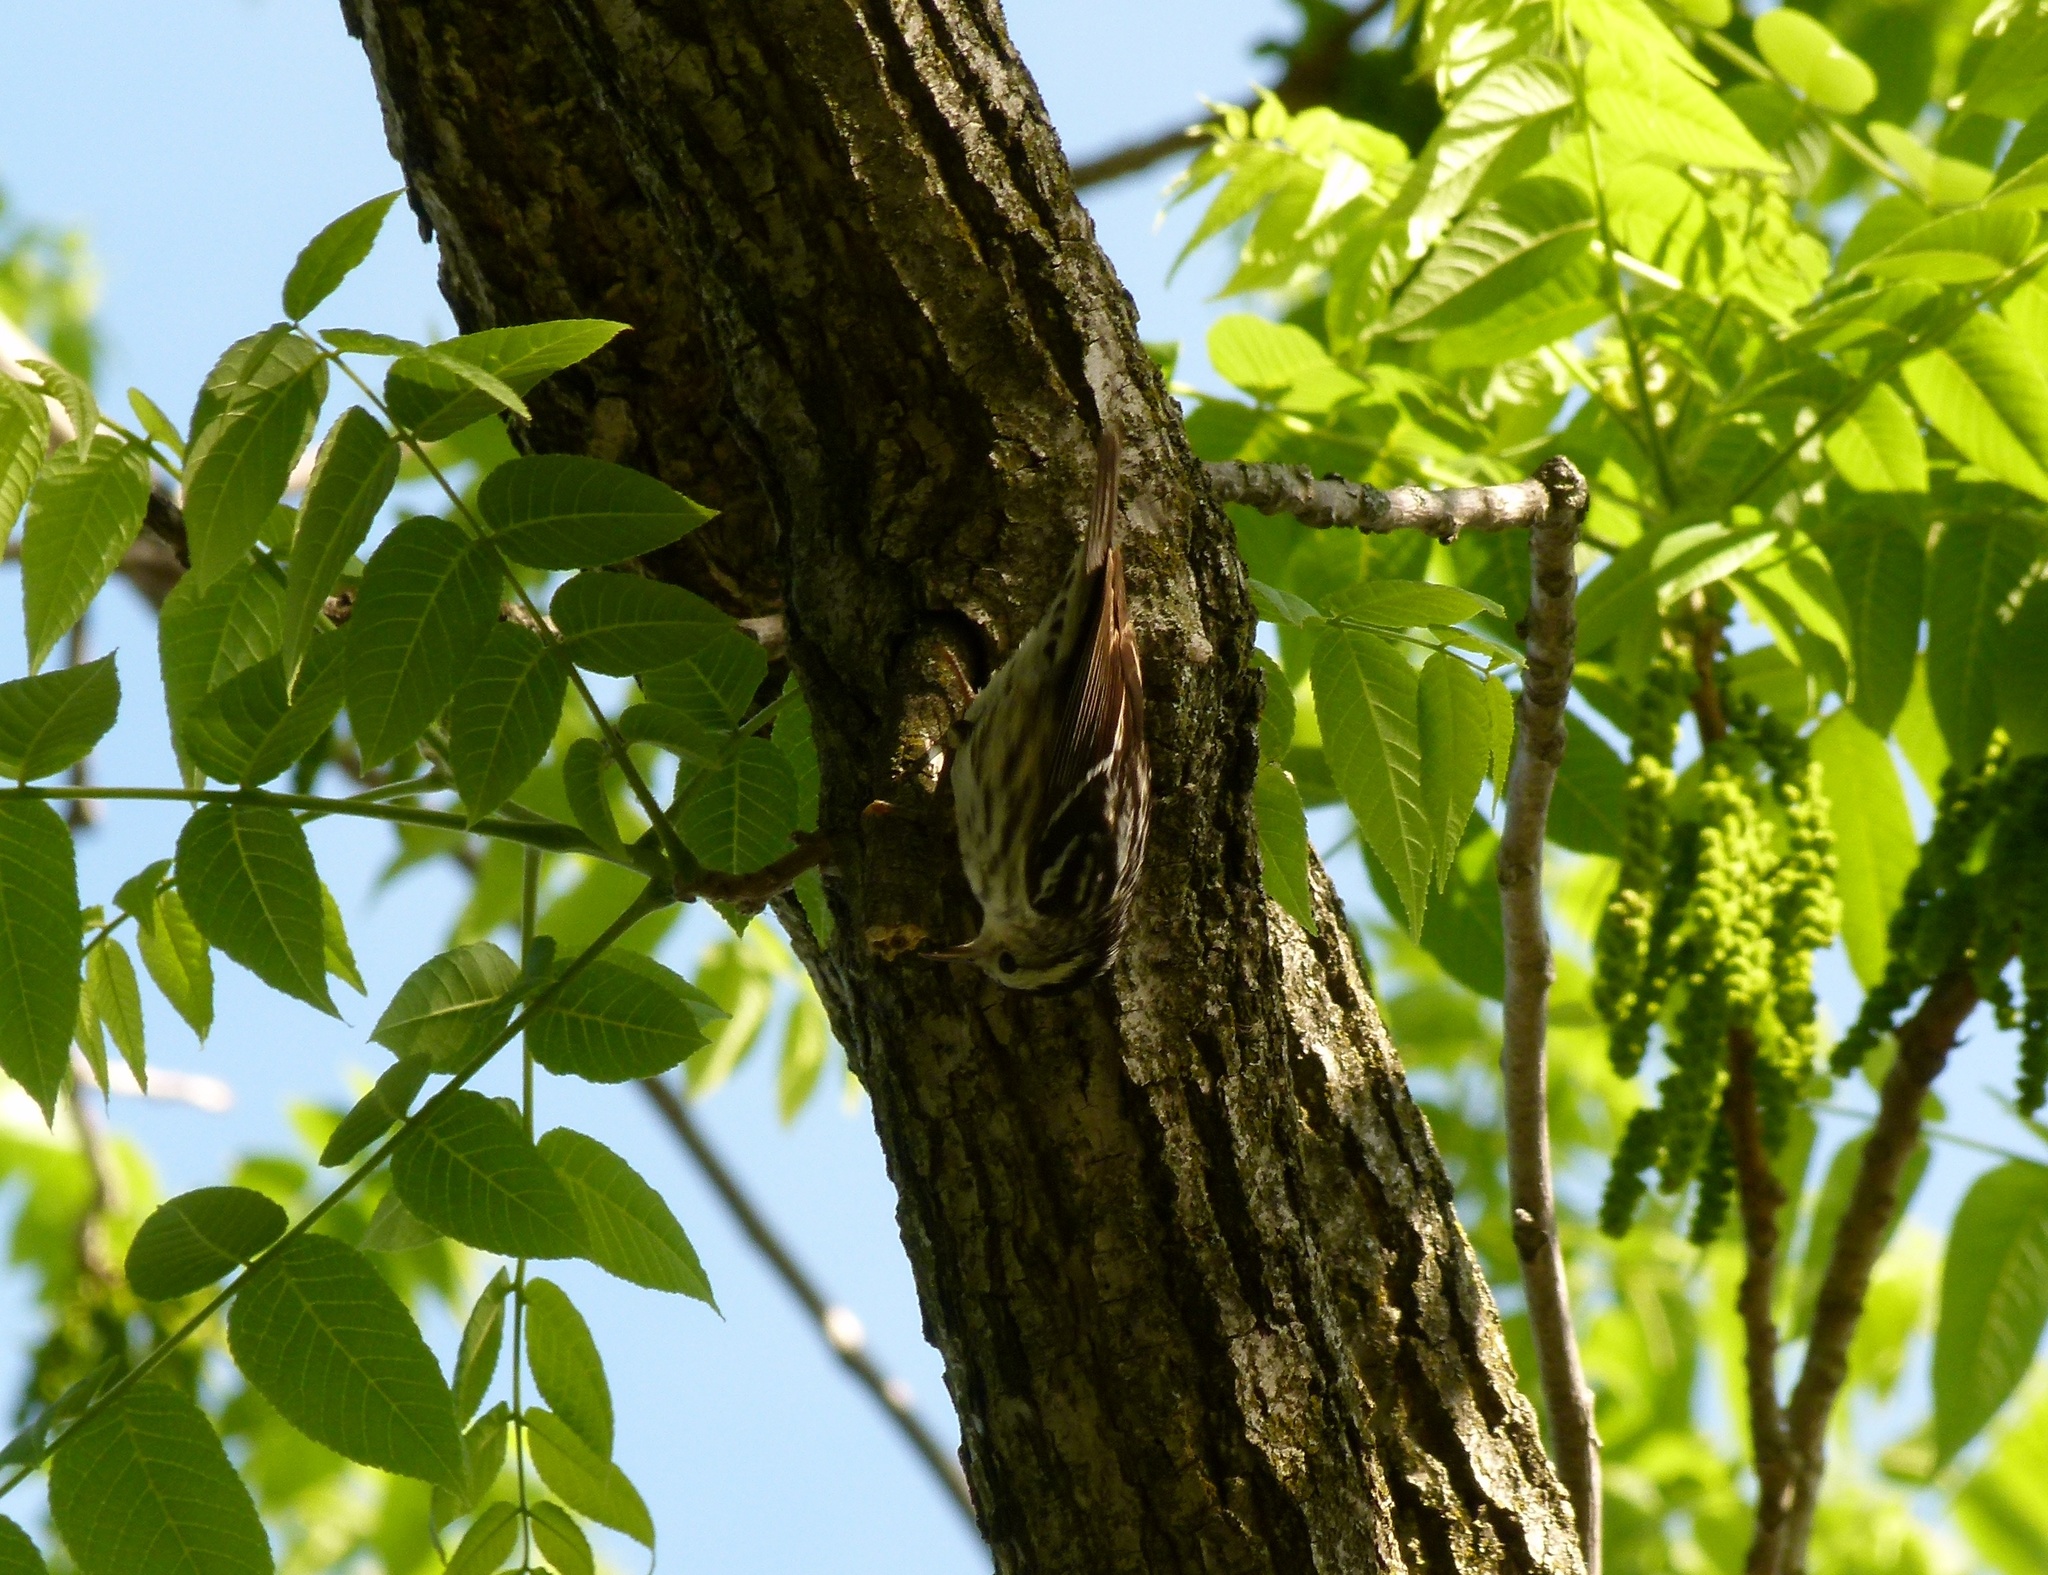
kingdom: Animalia
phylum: Chordata
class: Aves
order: Passeriformes
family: Parulidae
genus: Mniotilta
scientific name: Mniotilta varia
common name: Black-and-white warbler
